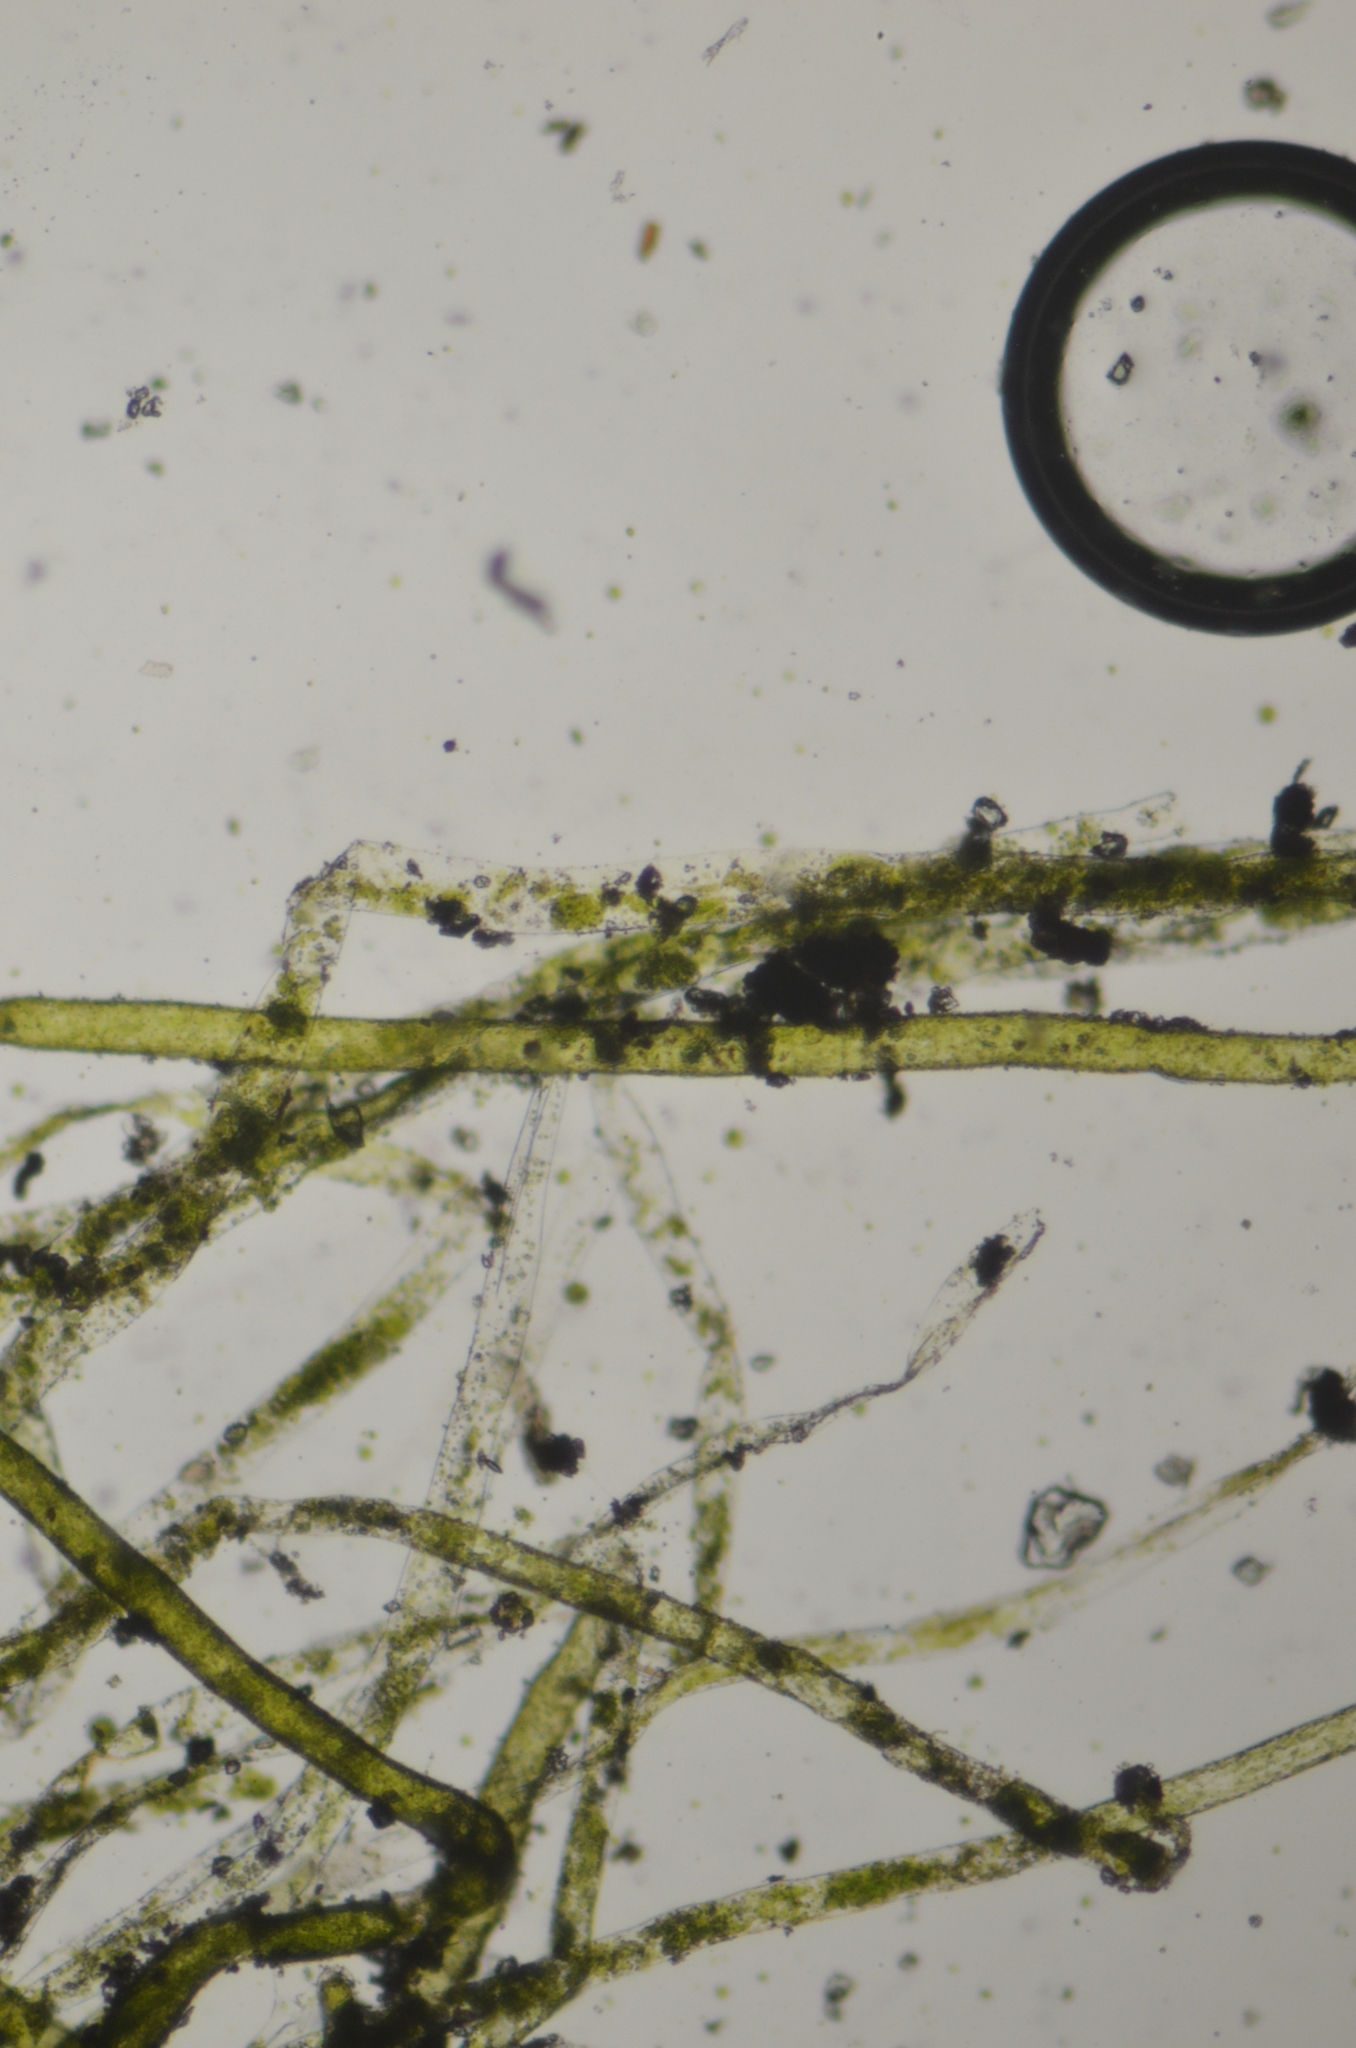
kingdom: Chromista
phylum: Ochrophyta
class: Xanthophyceae
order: Vaucheriales
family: Vaucheriaceae
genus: Vaucheria
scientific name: Vaucheria
